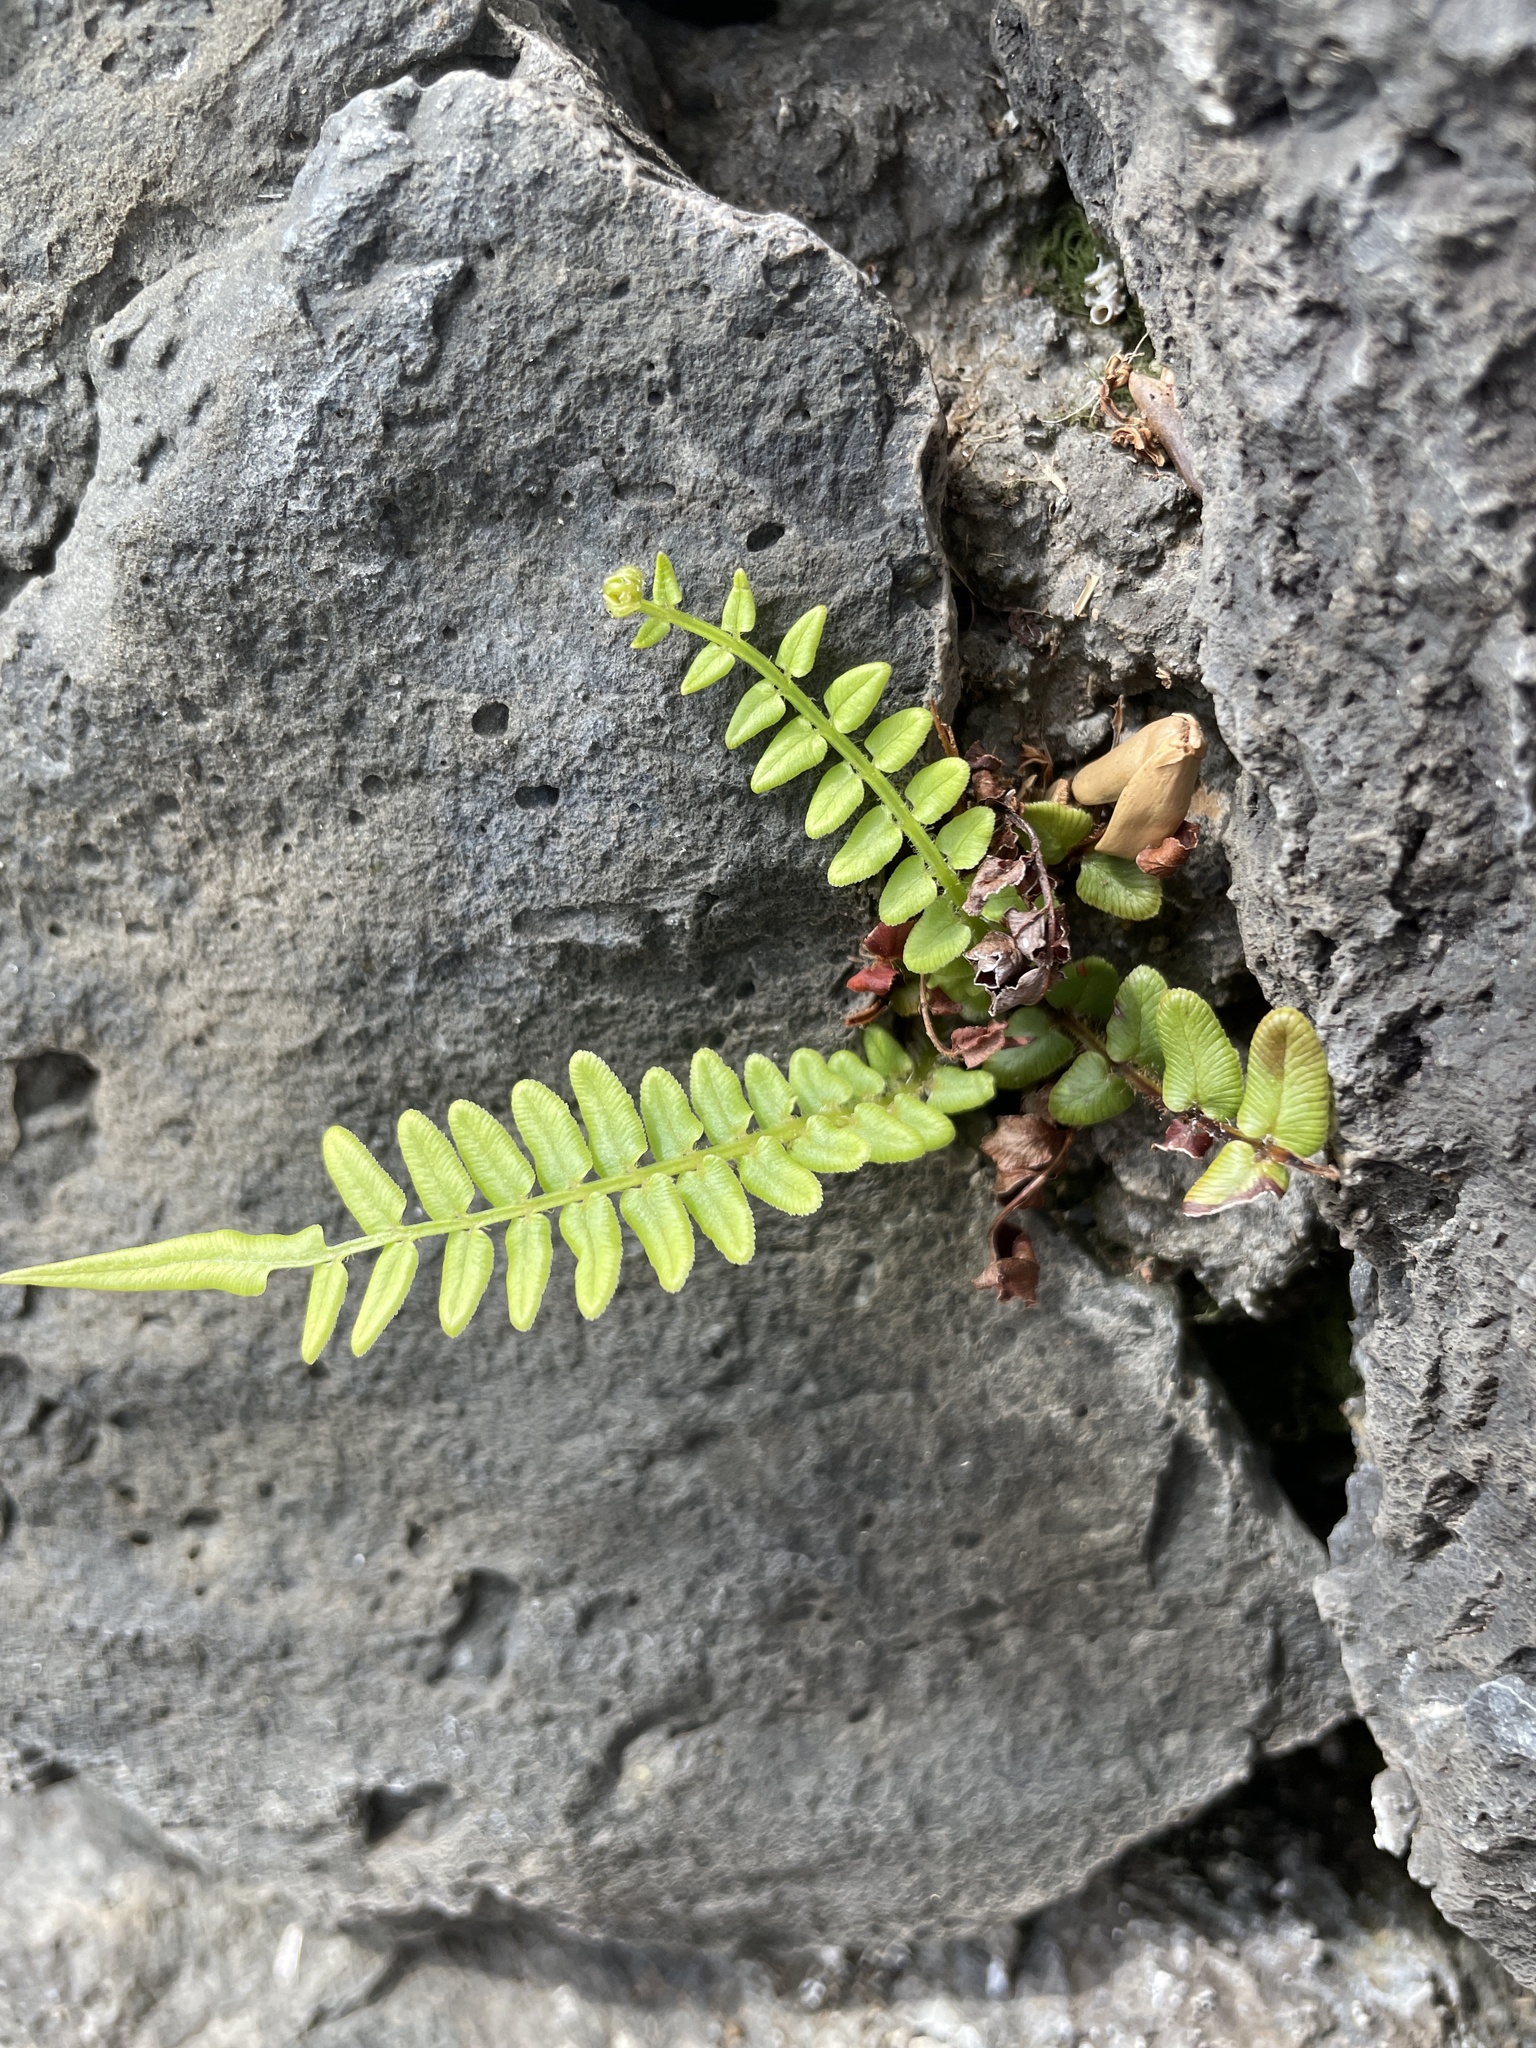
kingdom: Plantae
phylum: Tracheophyta
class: Polypodiopsida
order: Polypodiales
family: Pteridaceae
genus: Pteris
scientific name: Pteris vittata
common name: Ladder brake
